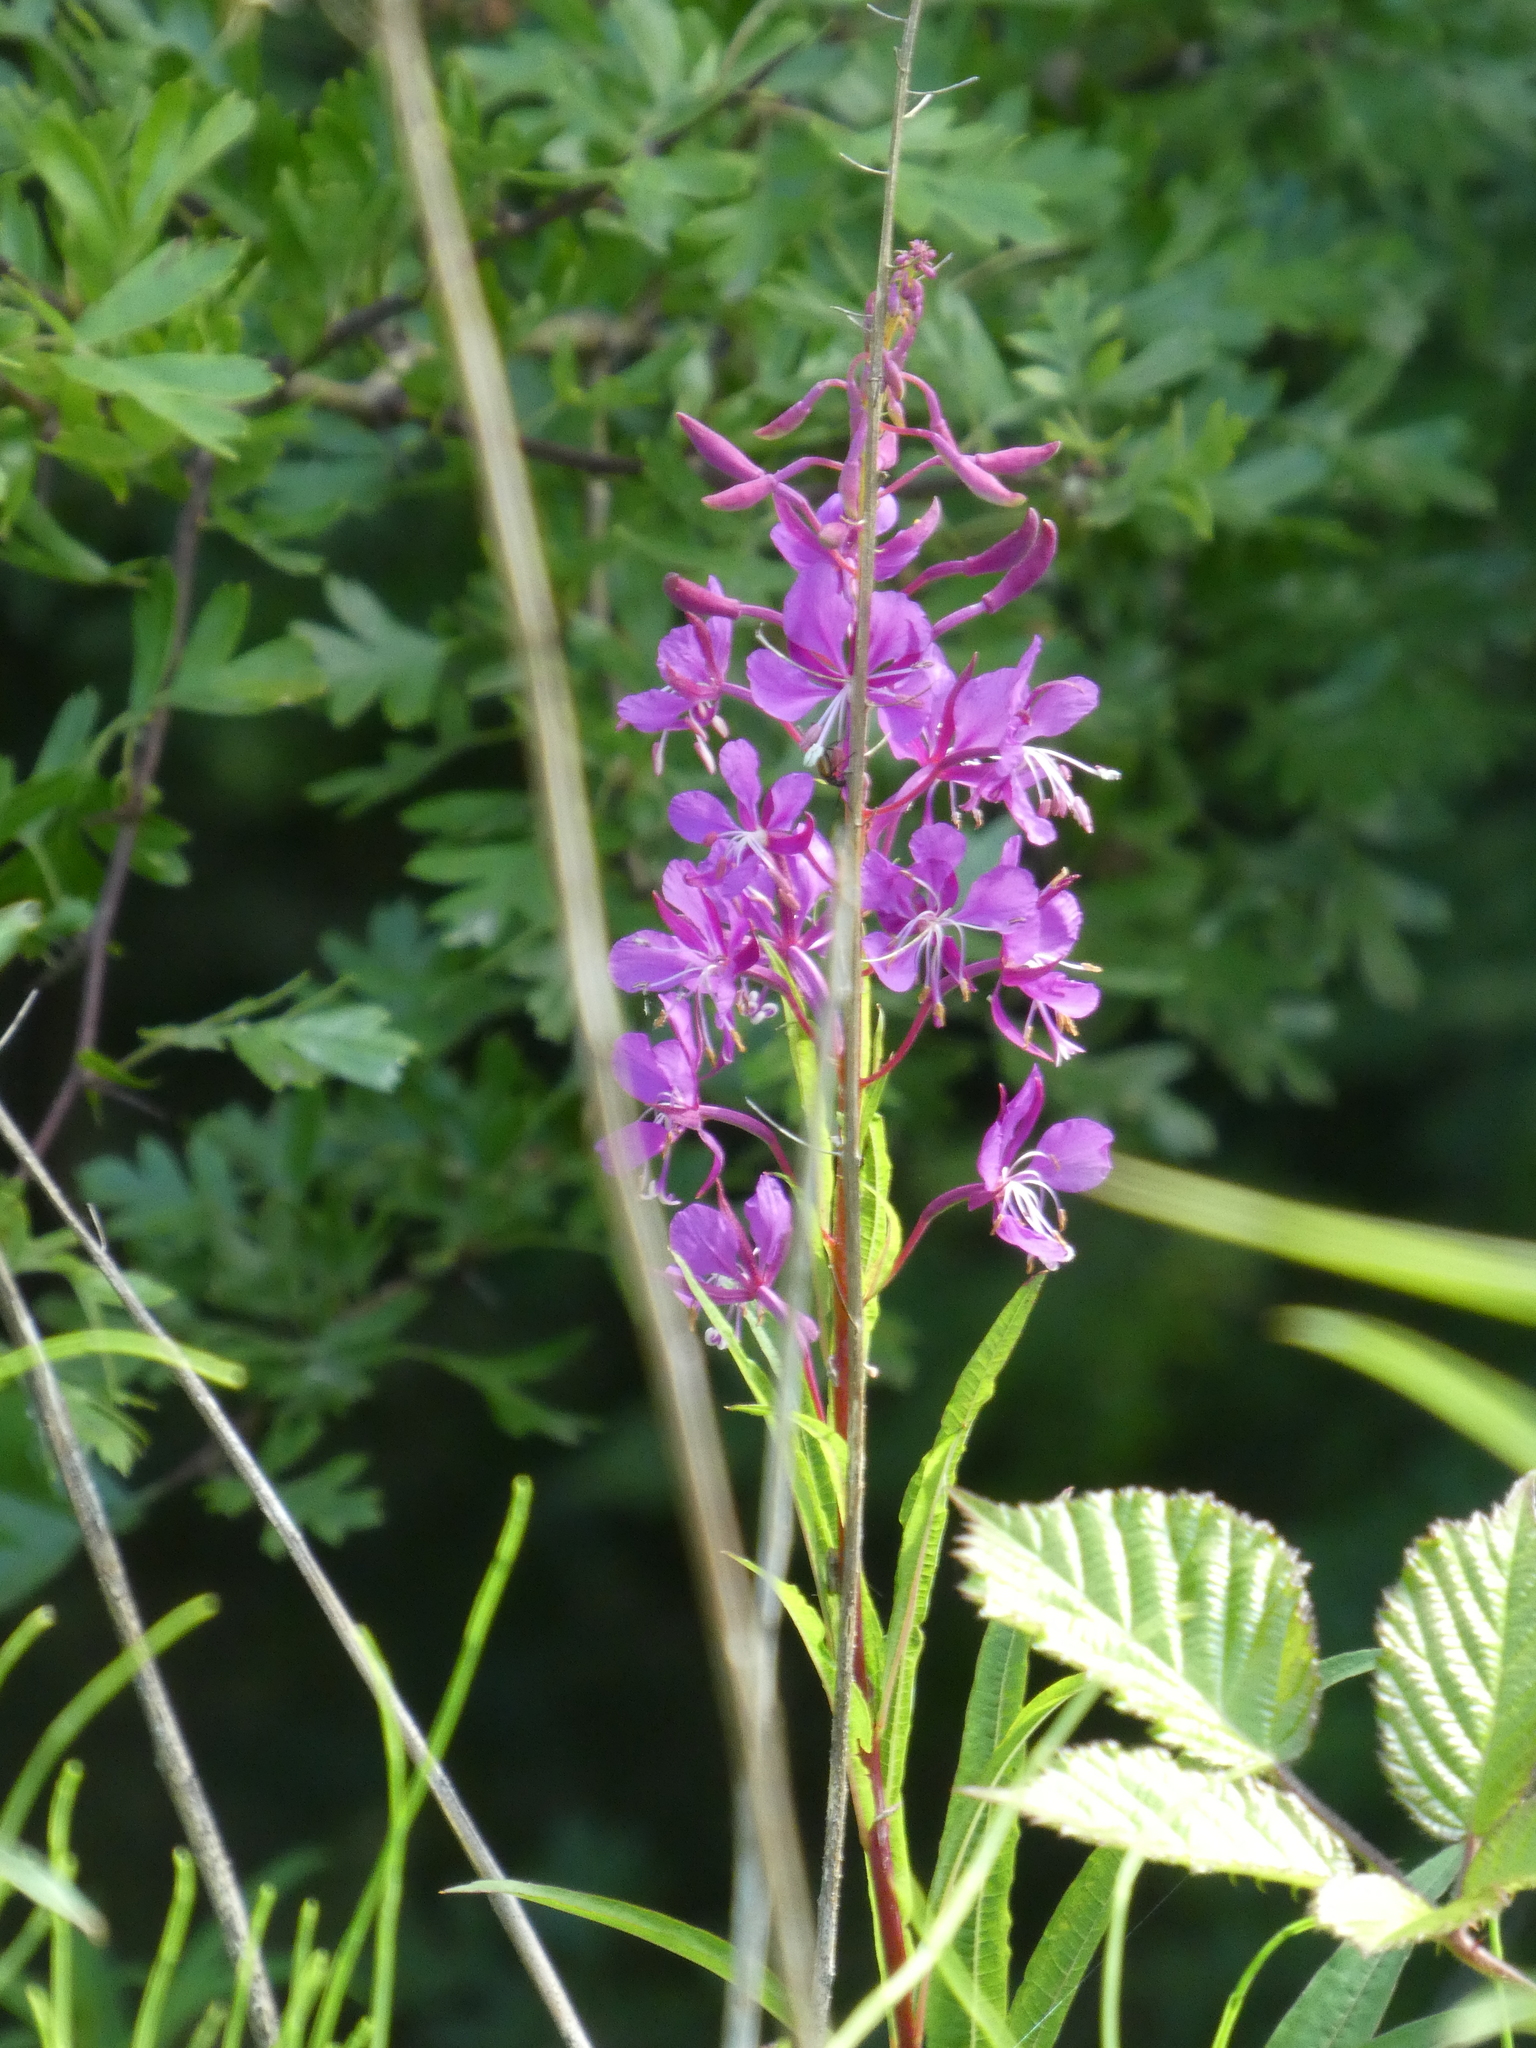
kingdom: Plantae
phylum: Tracheophyta
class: Magnoliopsida
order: Myrtales
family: Onagraceae
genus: Chamaenerion
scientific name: Chamaenerion angustifolium
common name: Fireweed
